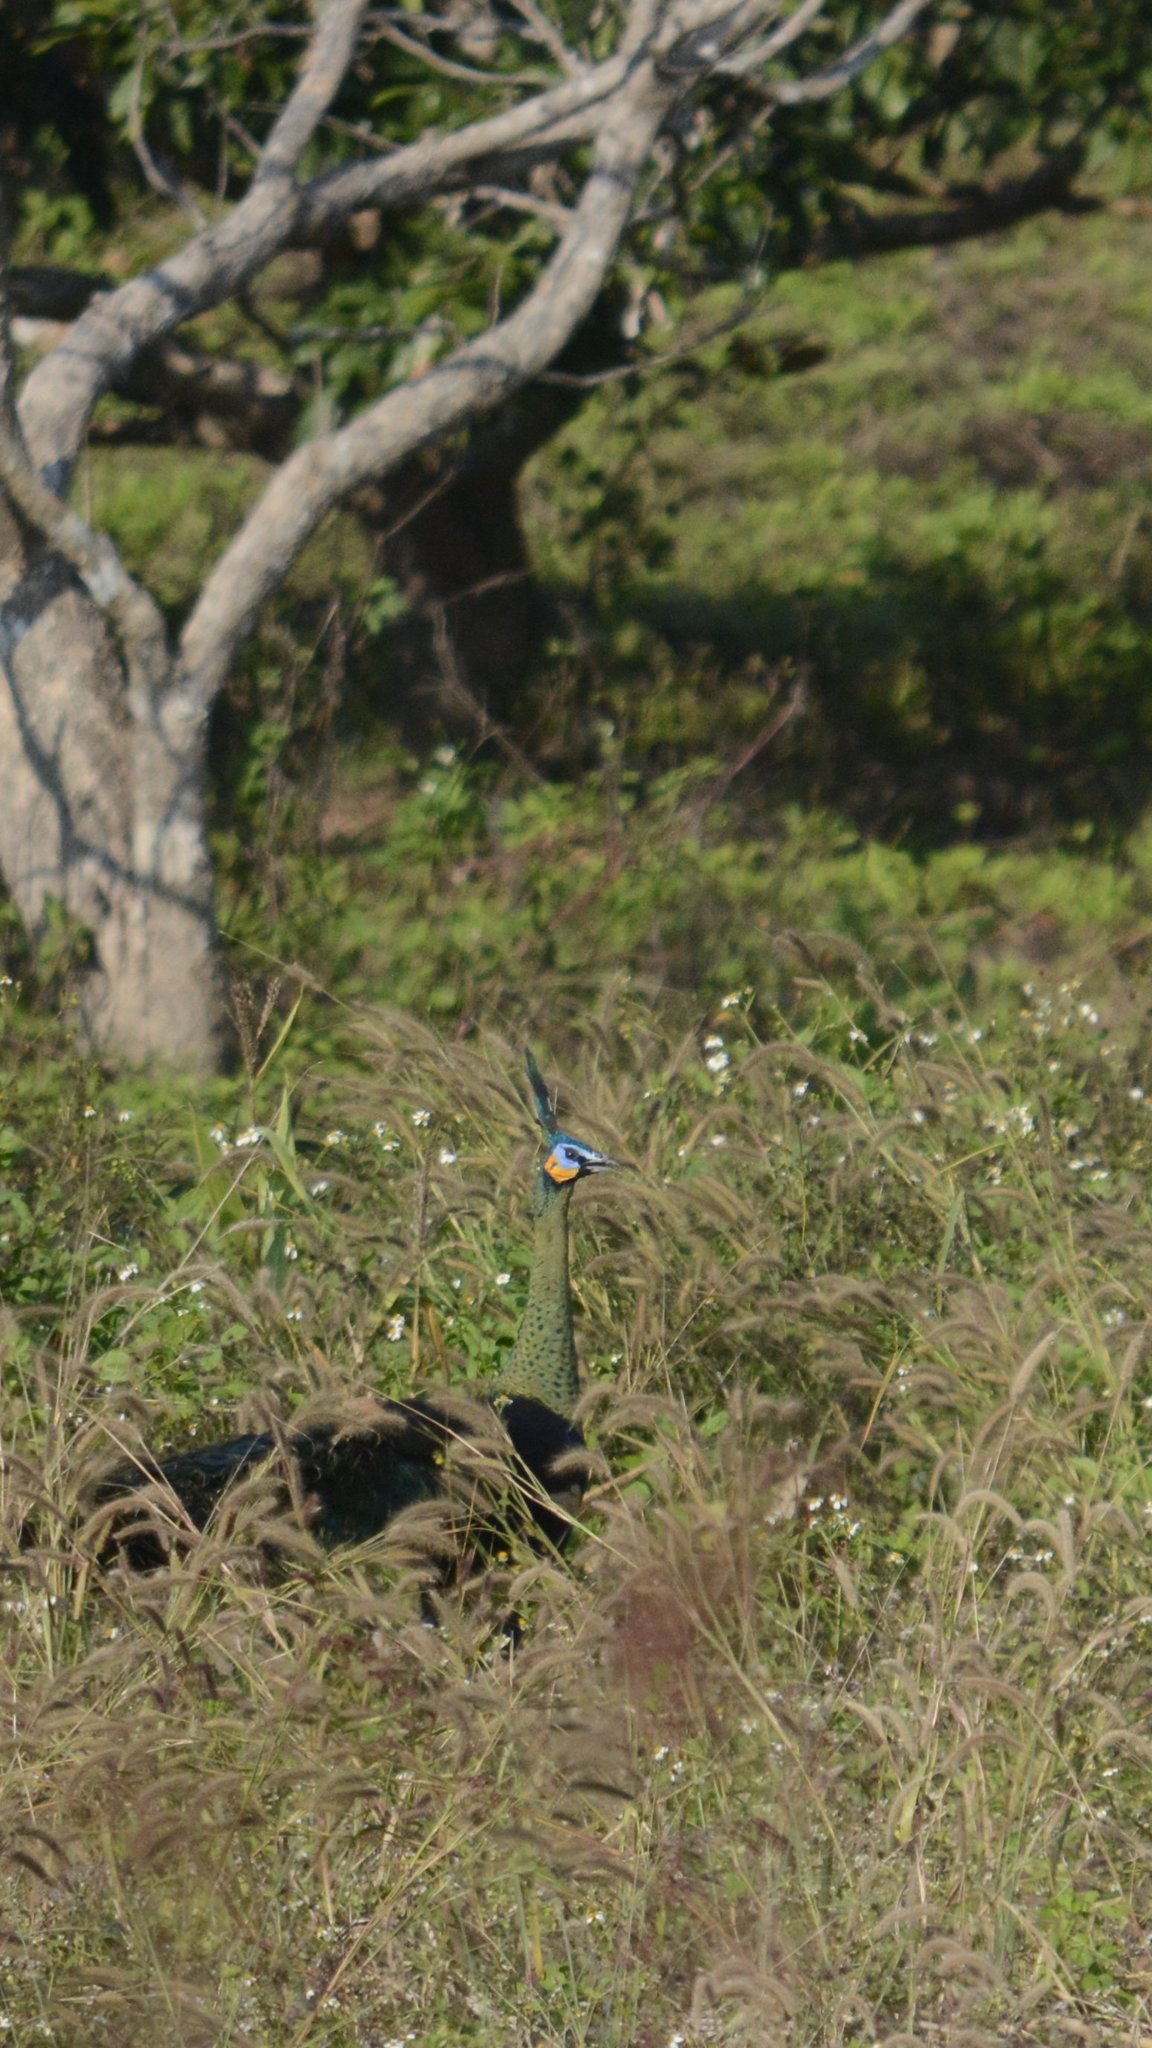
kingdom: Animalia
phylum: Chordata
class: Aves
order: Galliformes
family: Phasianidae
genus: Pavo
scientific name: Pavo muticus
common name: Green peafowl
